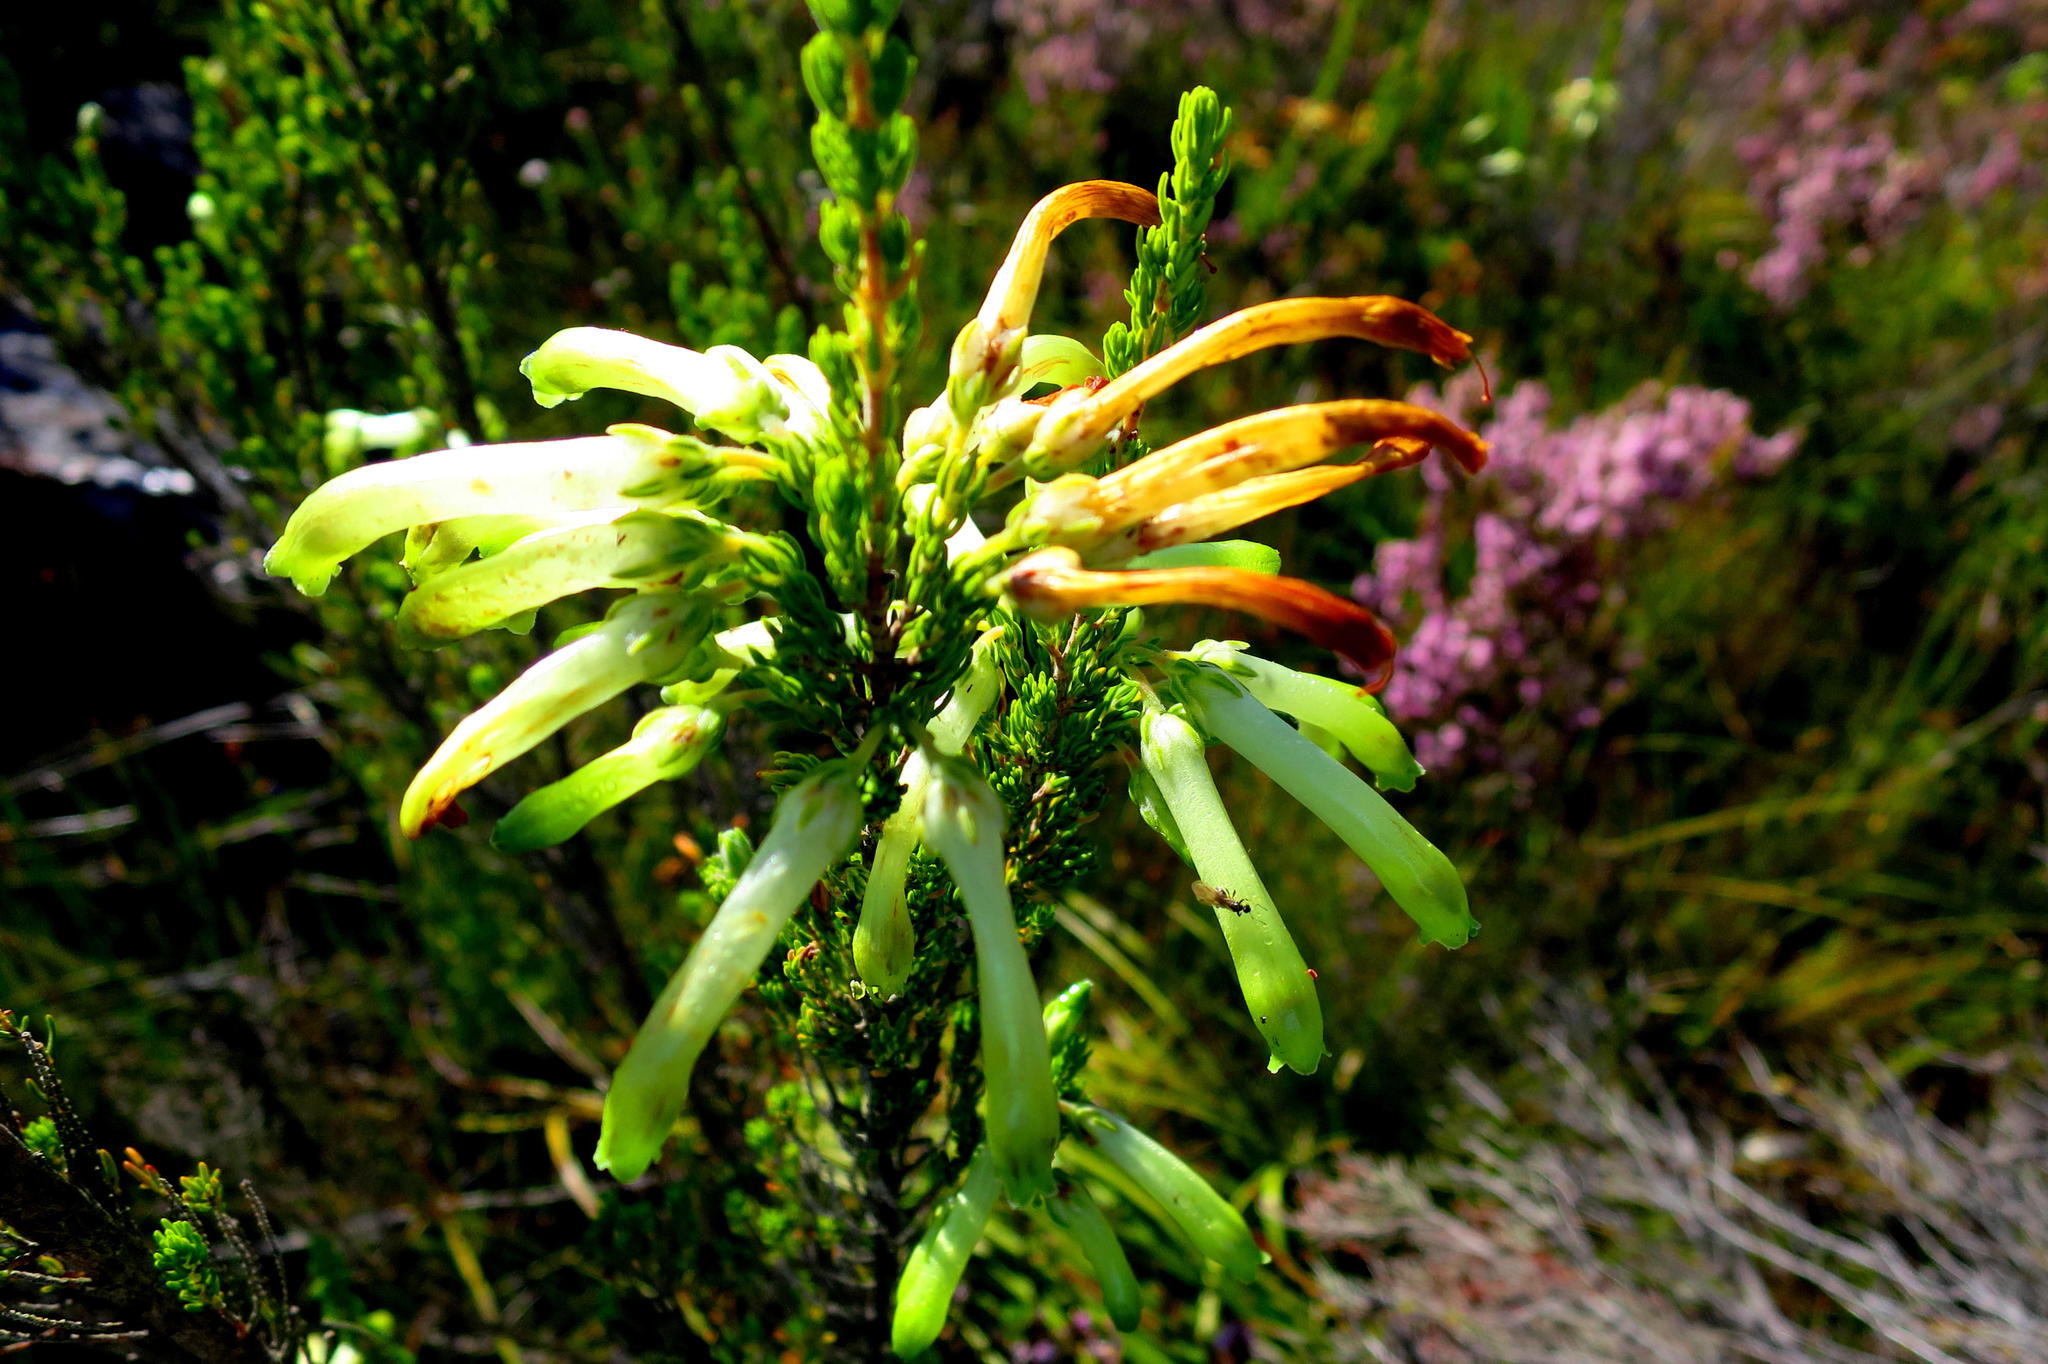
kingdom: Plantae
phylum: Tracheophyta
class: Magnoliopsida
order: Ericales
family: Ericaceae
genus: Erica
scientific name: Erica discolor
